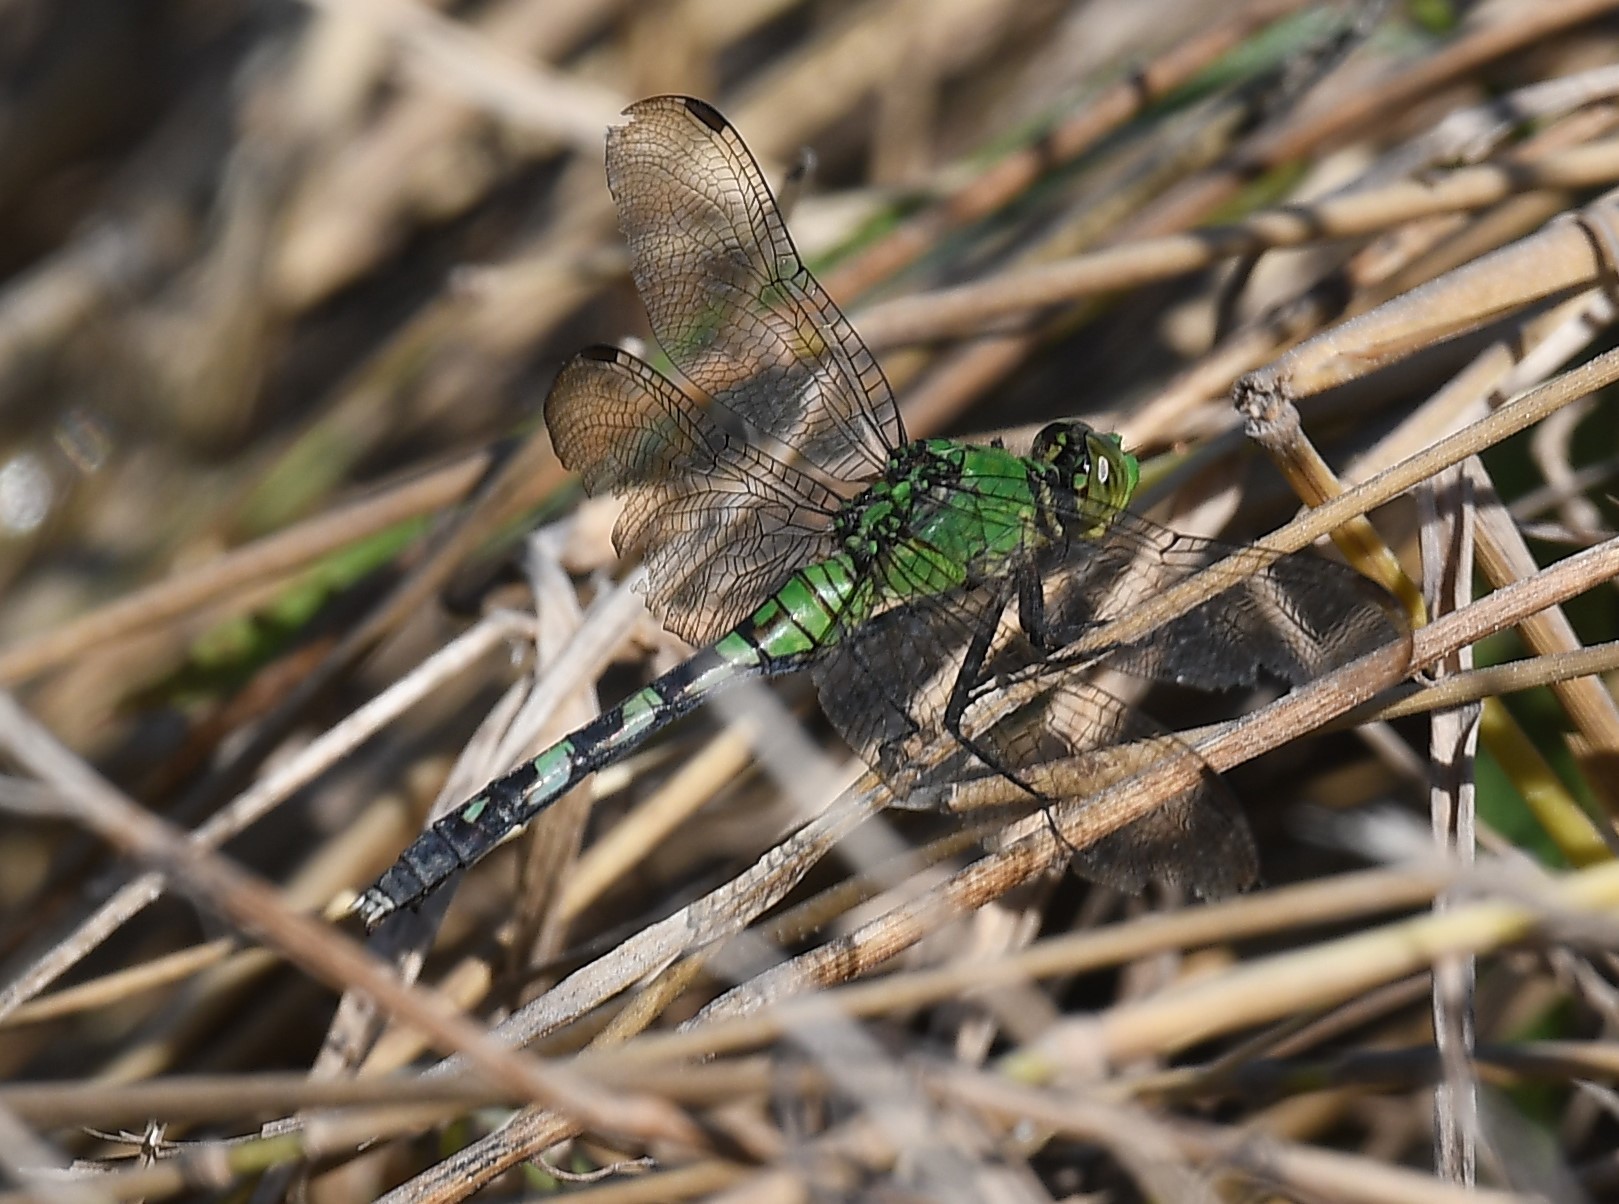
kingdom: Animalia
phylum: Arthropoda
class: Insecta
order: Odonata
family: Libellulidae
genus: Erythemis
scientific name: Erythemis simplicicollis
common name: Eastern pondhawk
